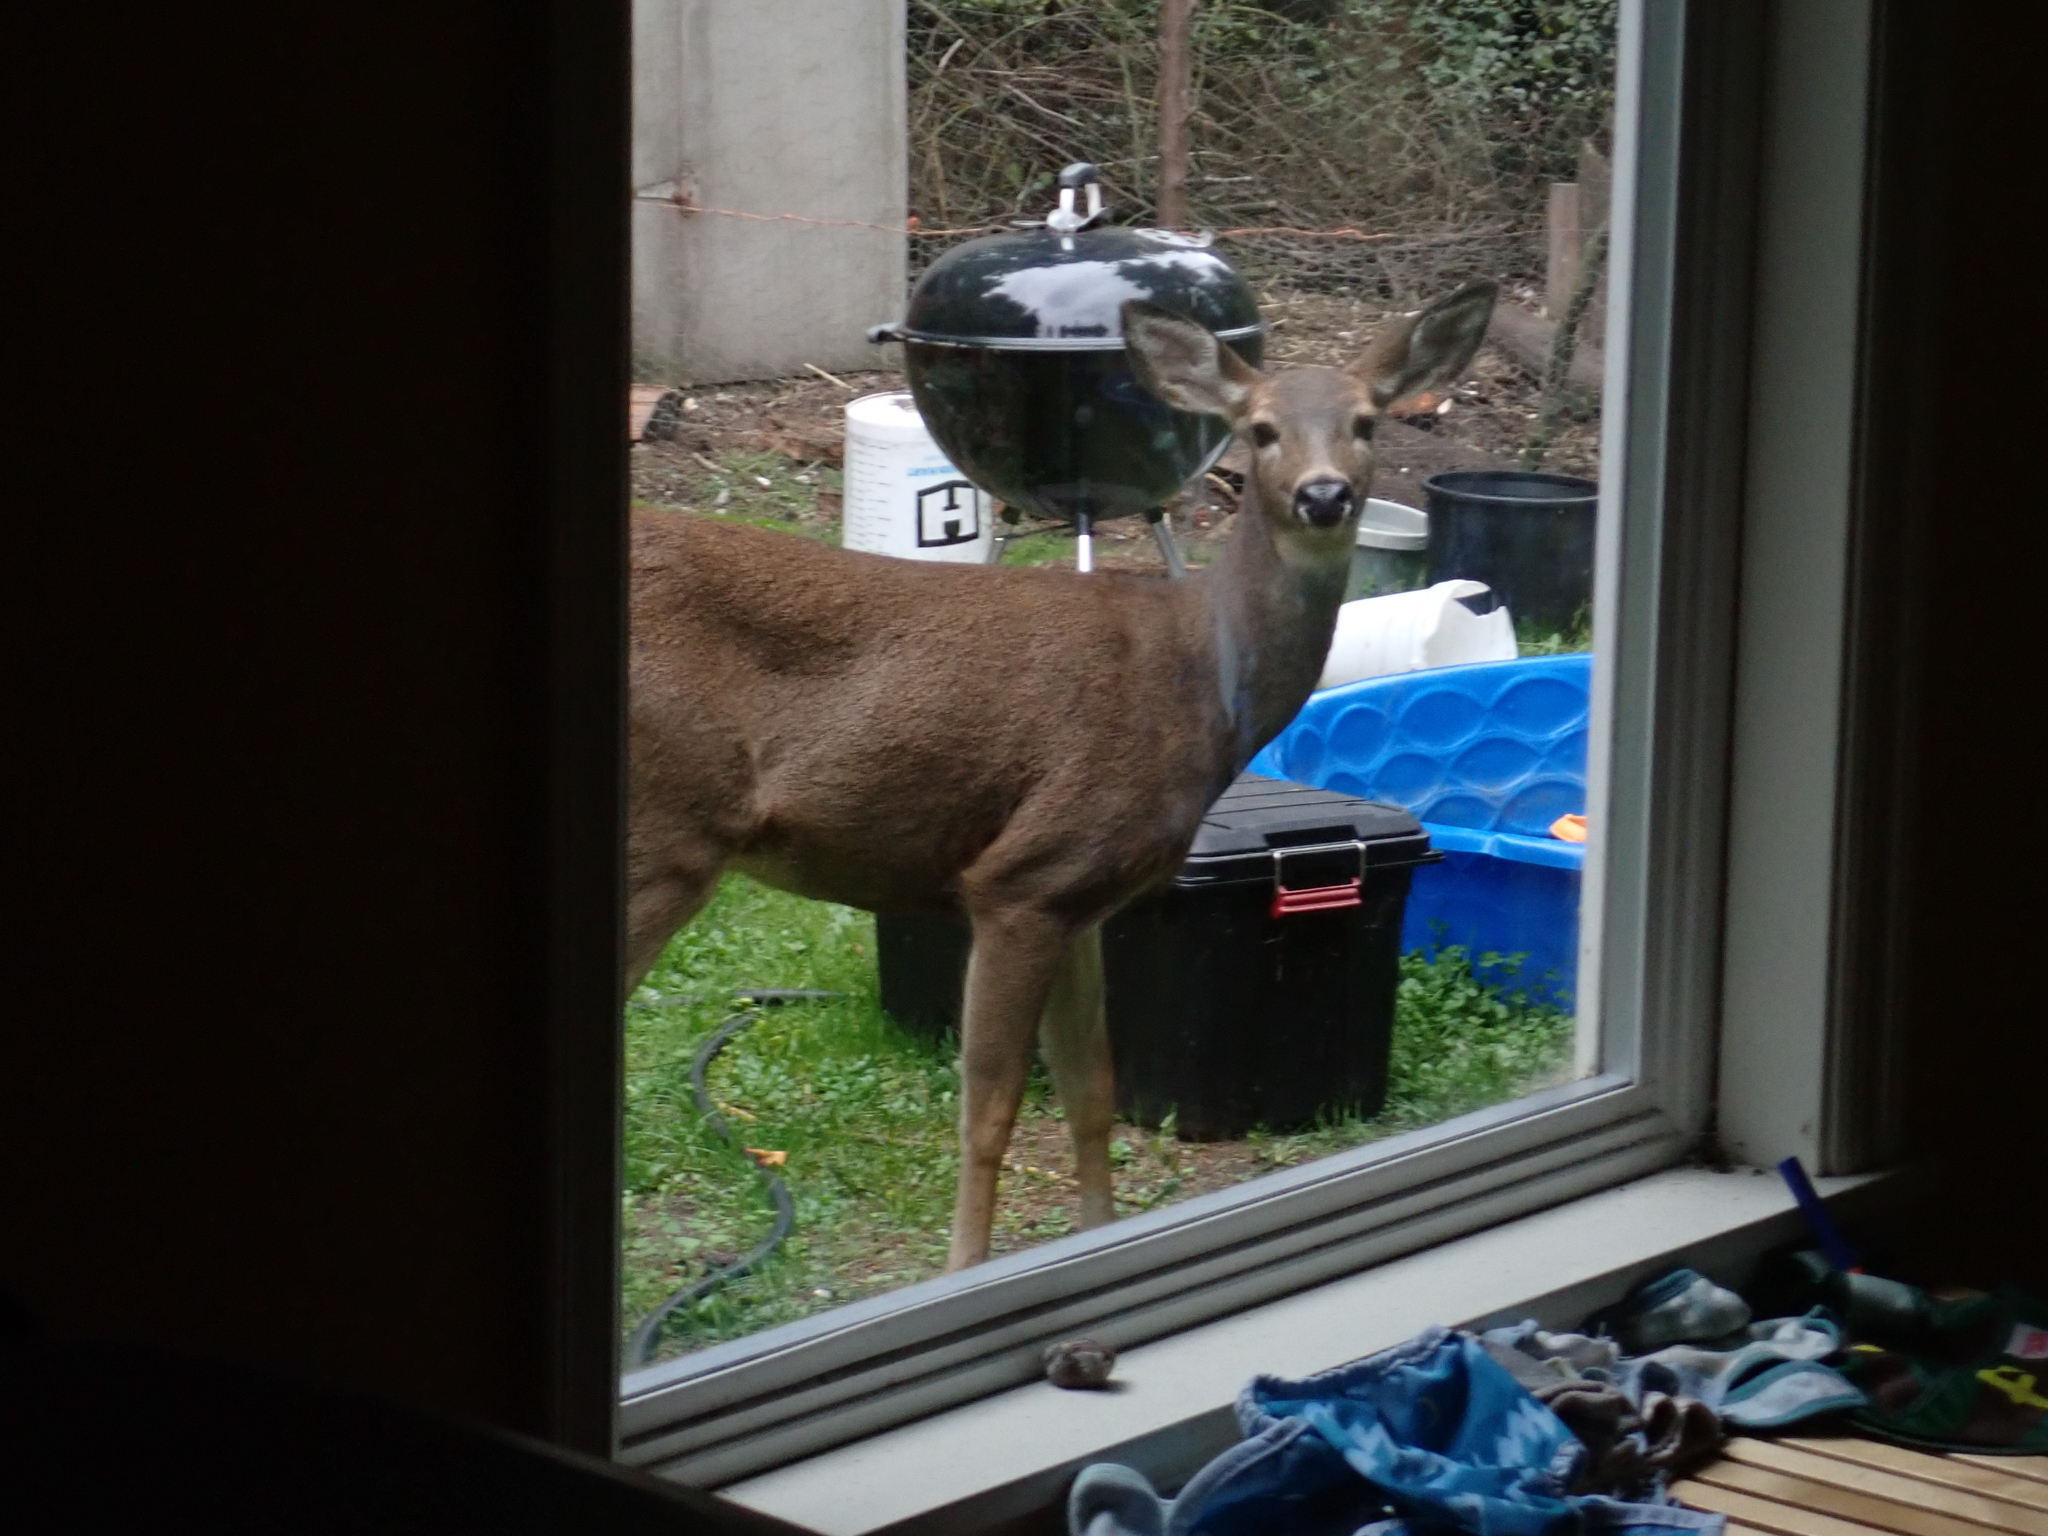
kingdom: Animalia
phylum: Chordata
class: Mammalia
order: Artiodactyla
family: Cervidae
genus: Odocoileus
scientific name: Odocoileus hemionus
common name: Mule deer
